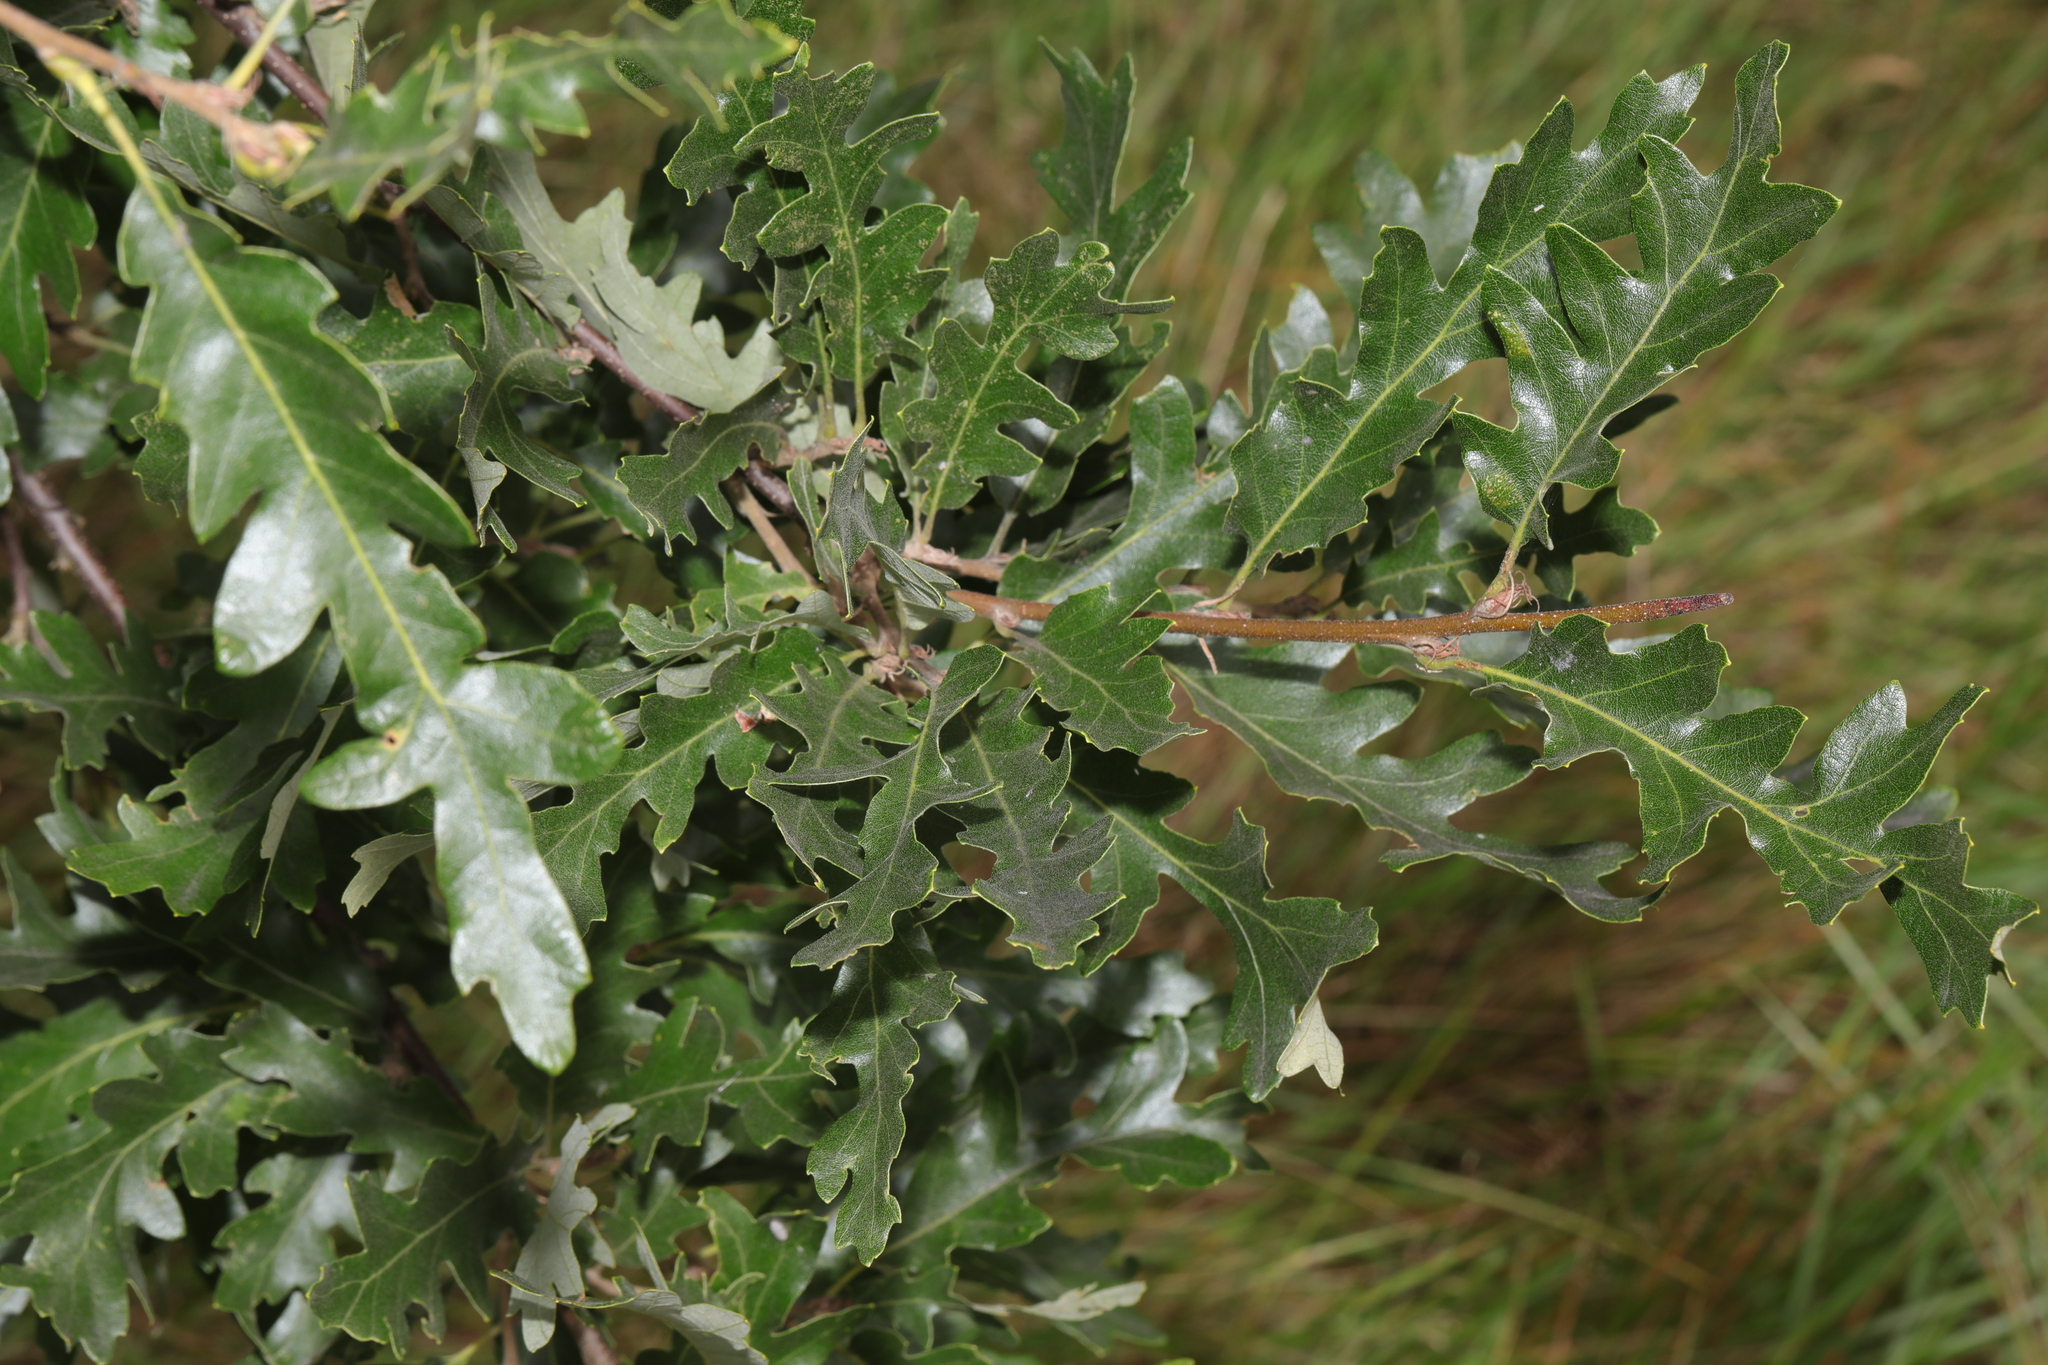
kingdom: Plantae
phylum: Tracheophyta
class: Magnoliopsida
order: Fagales
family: Fagaceae
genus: Quercus
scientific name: Quercus cerris
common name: Turkey oak
